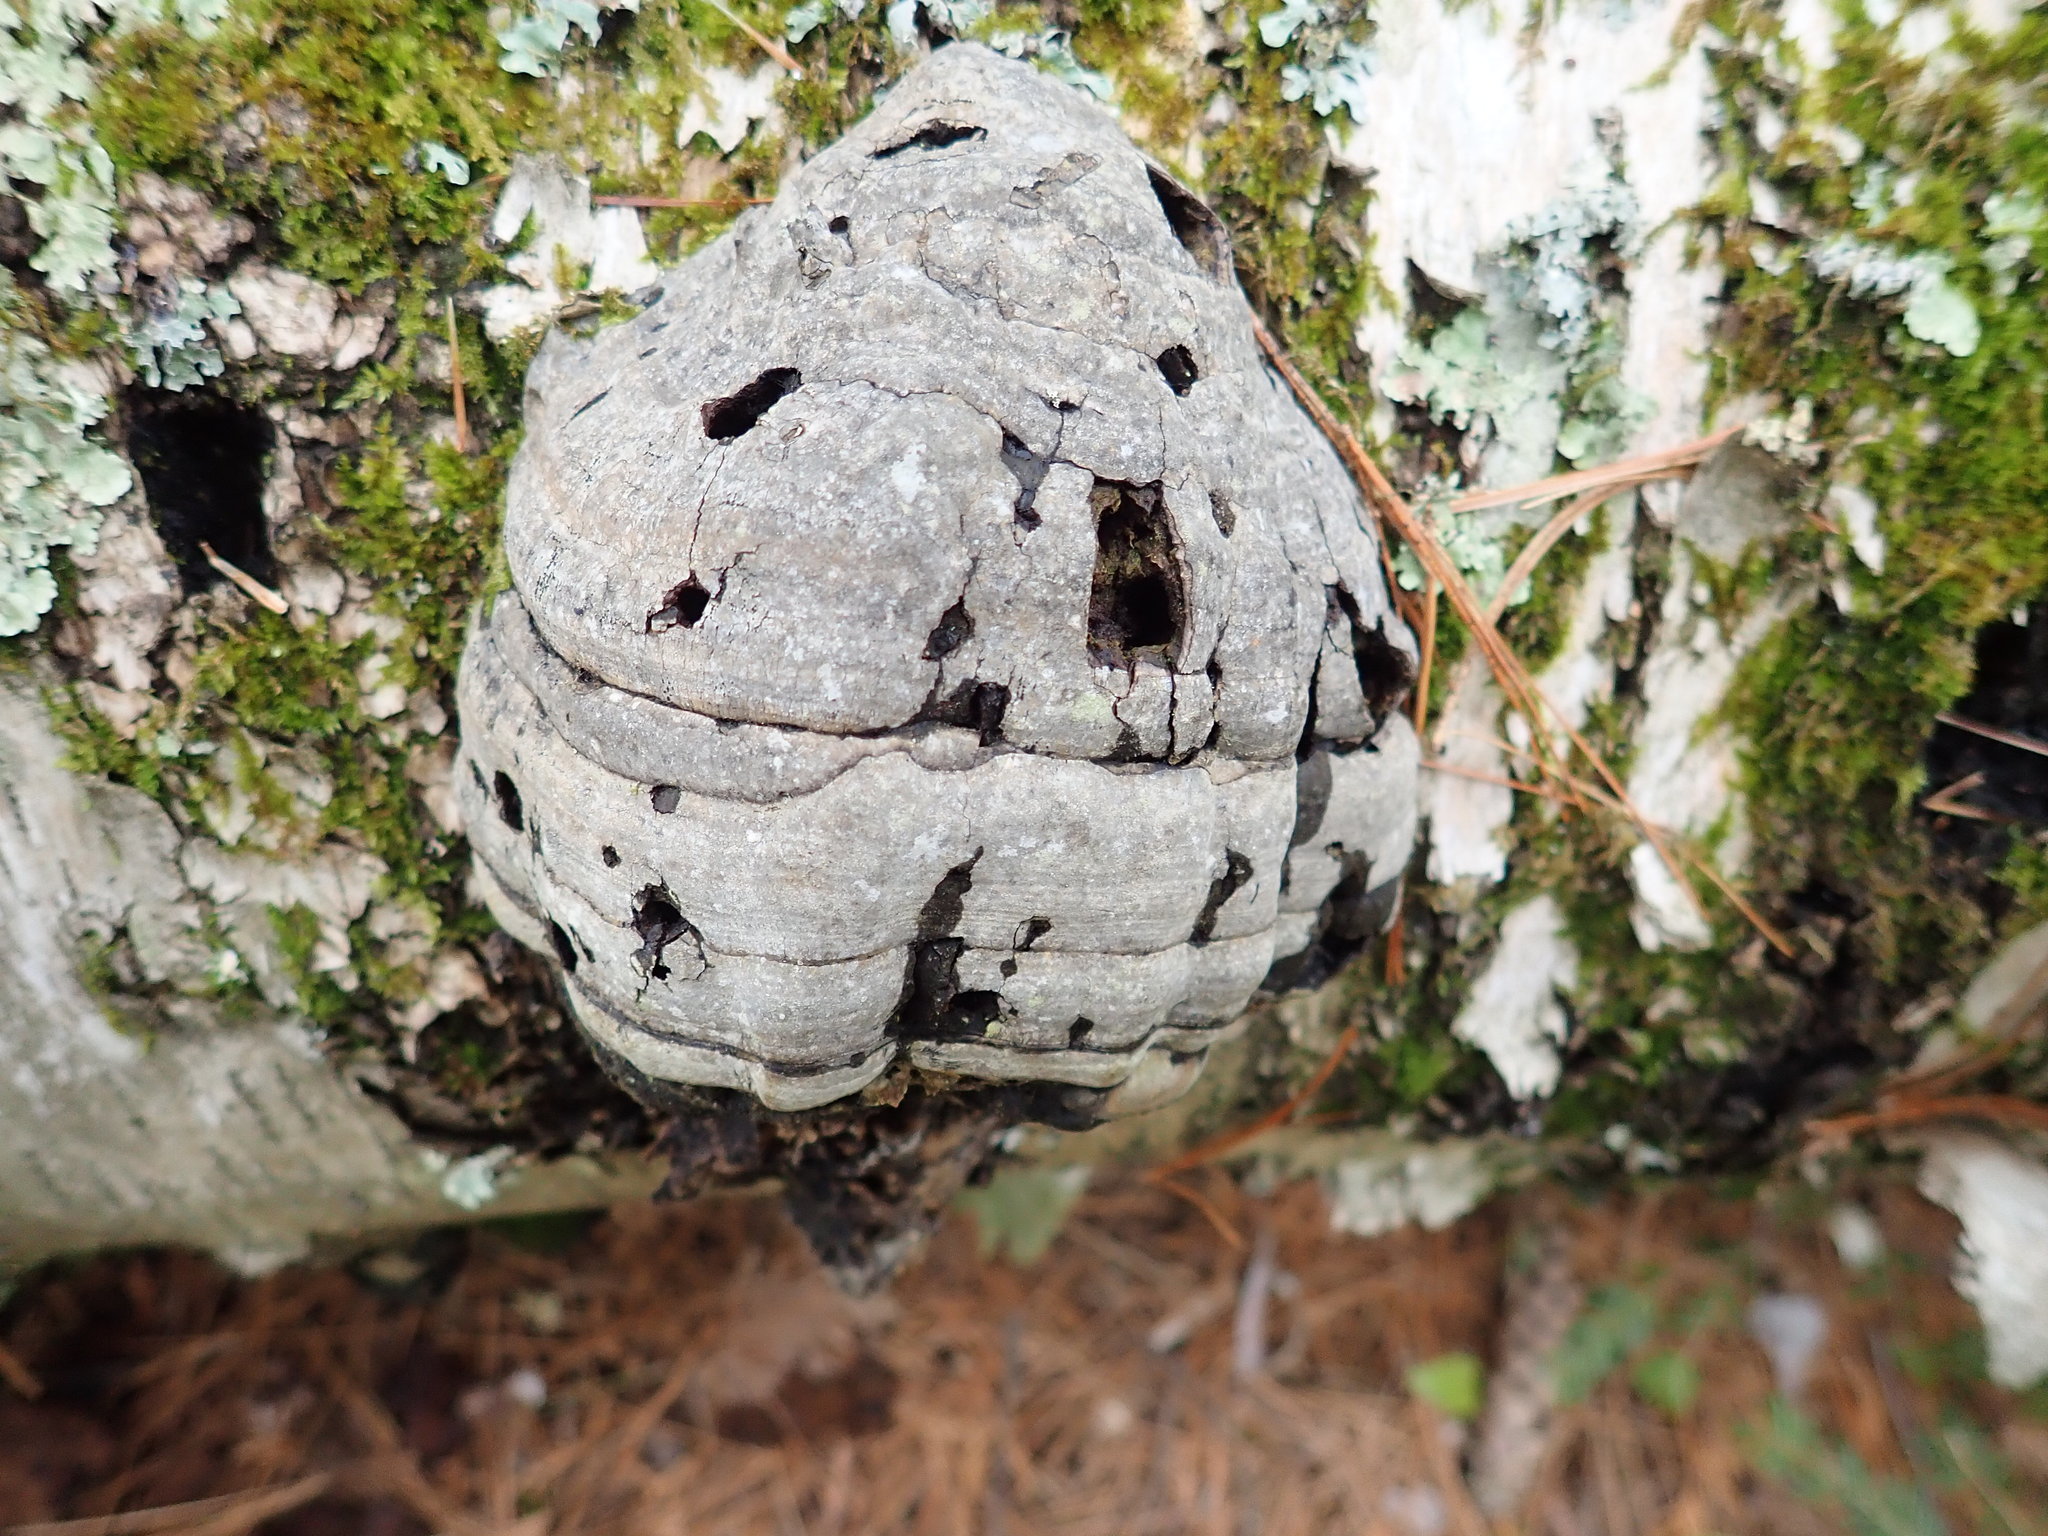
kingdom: Fungi
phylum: Basidiomycota
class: Agaricomycetes
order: Polyporales
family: Polyporaceae
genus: Fomes
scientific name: Fomes fomentarius
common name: Hoof fungus
